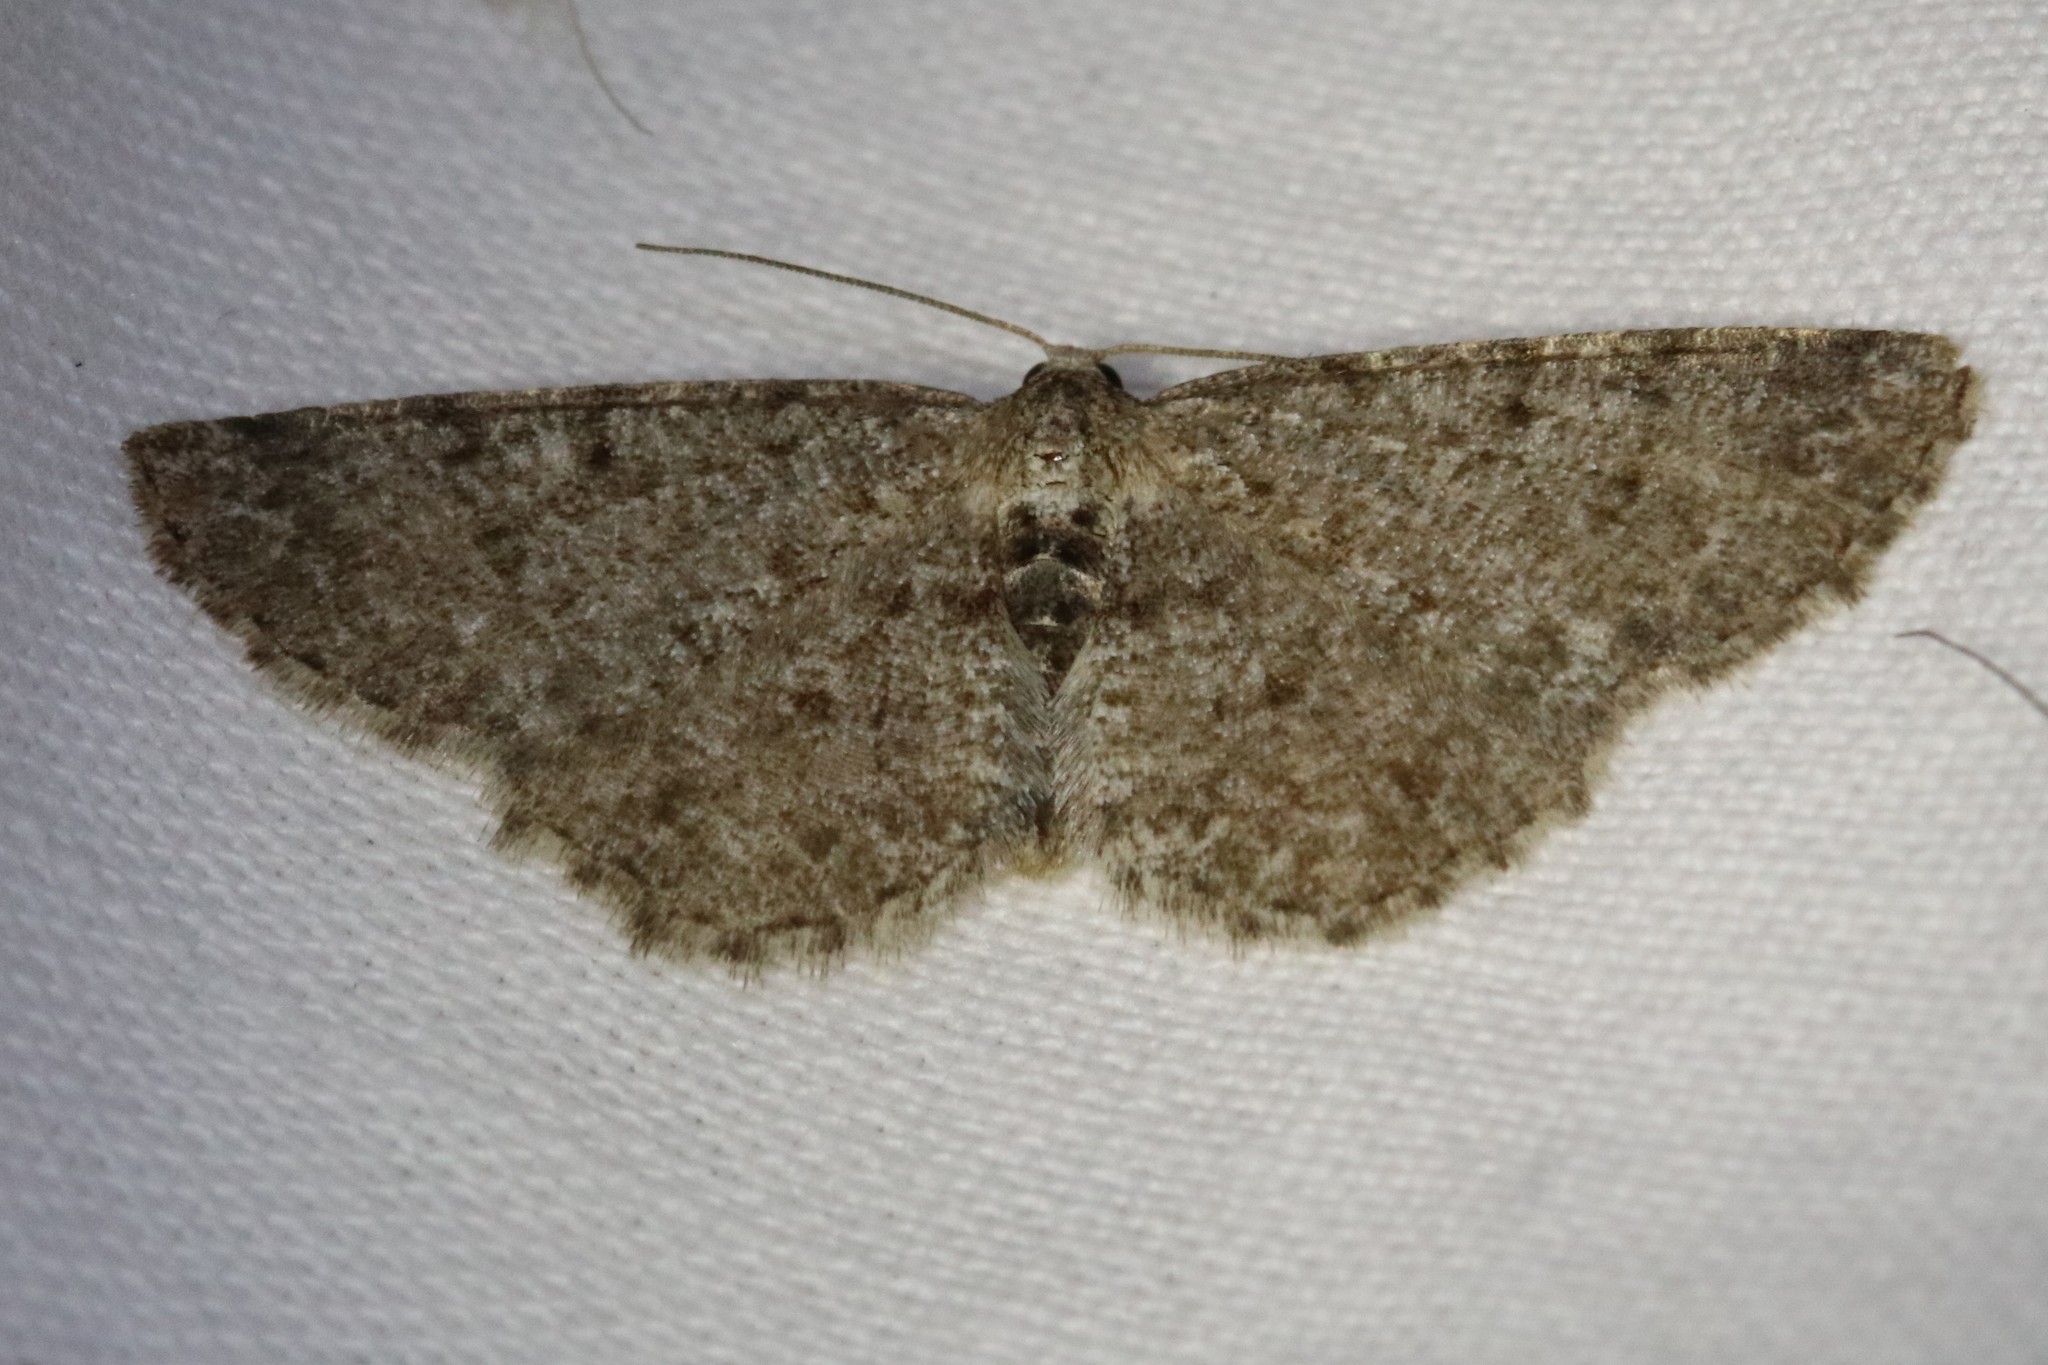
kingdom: Animalia
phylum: Arthropoda
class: Insecta
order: Lepidoptera
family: Geometridae
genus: Aethalura
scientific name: Aethalura intertexta
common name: Four-barred gray
